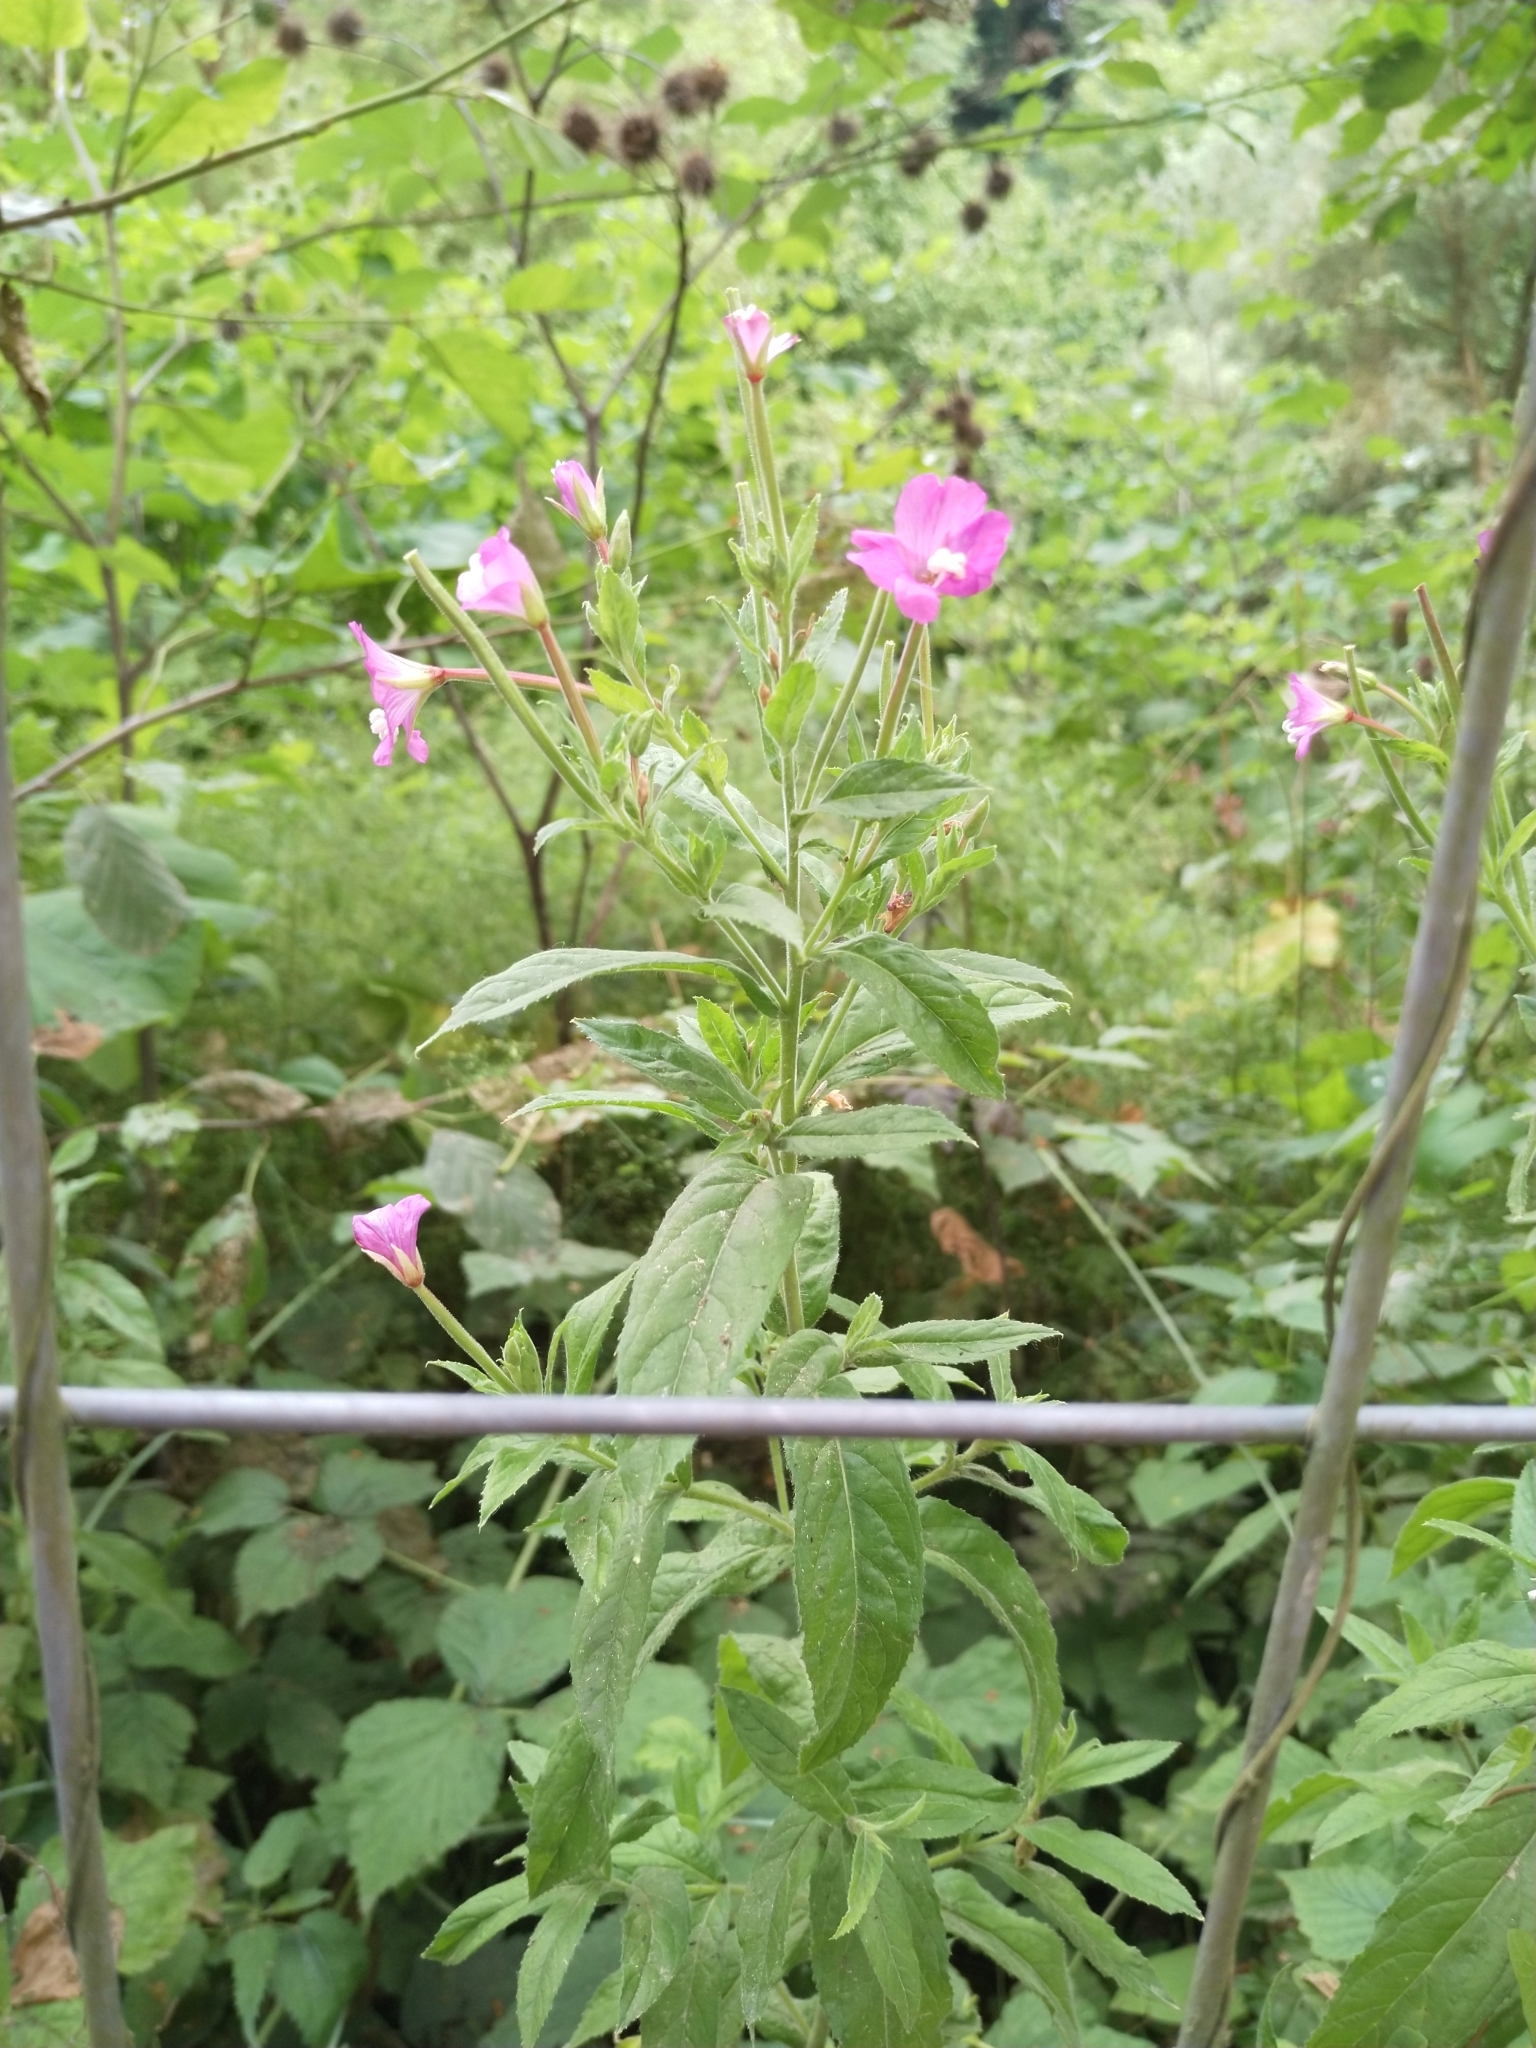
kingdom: Plantae
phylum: Tracheophyta
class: Magnoliopsida
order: Myrtales
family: Onagraceae
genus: Epilobium
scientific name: Epilobium hirsutum
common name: Great willowherb
